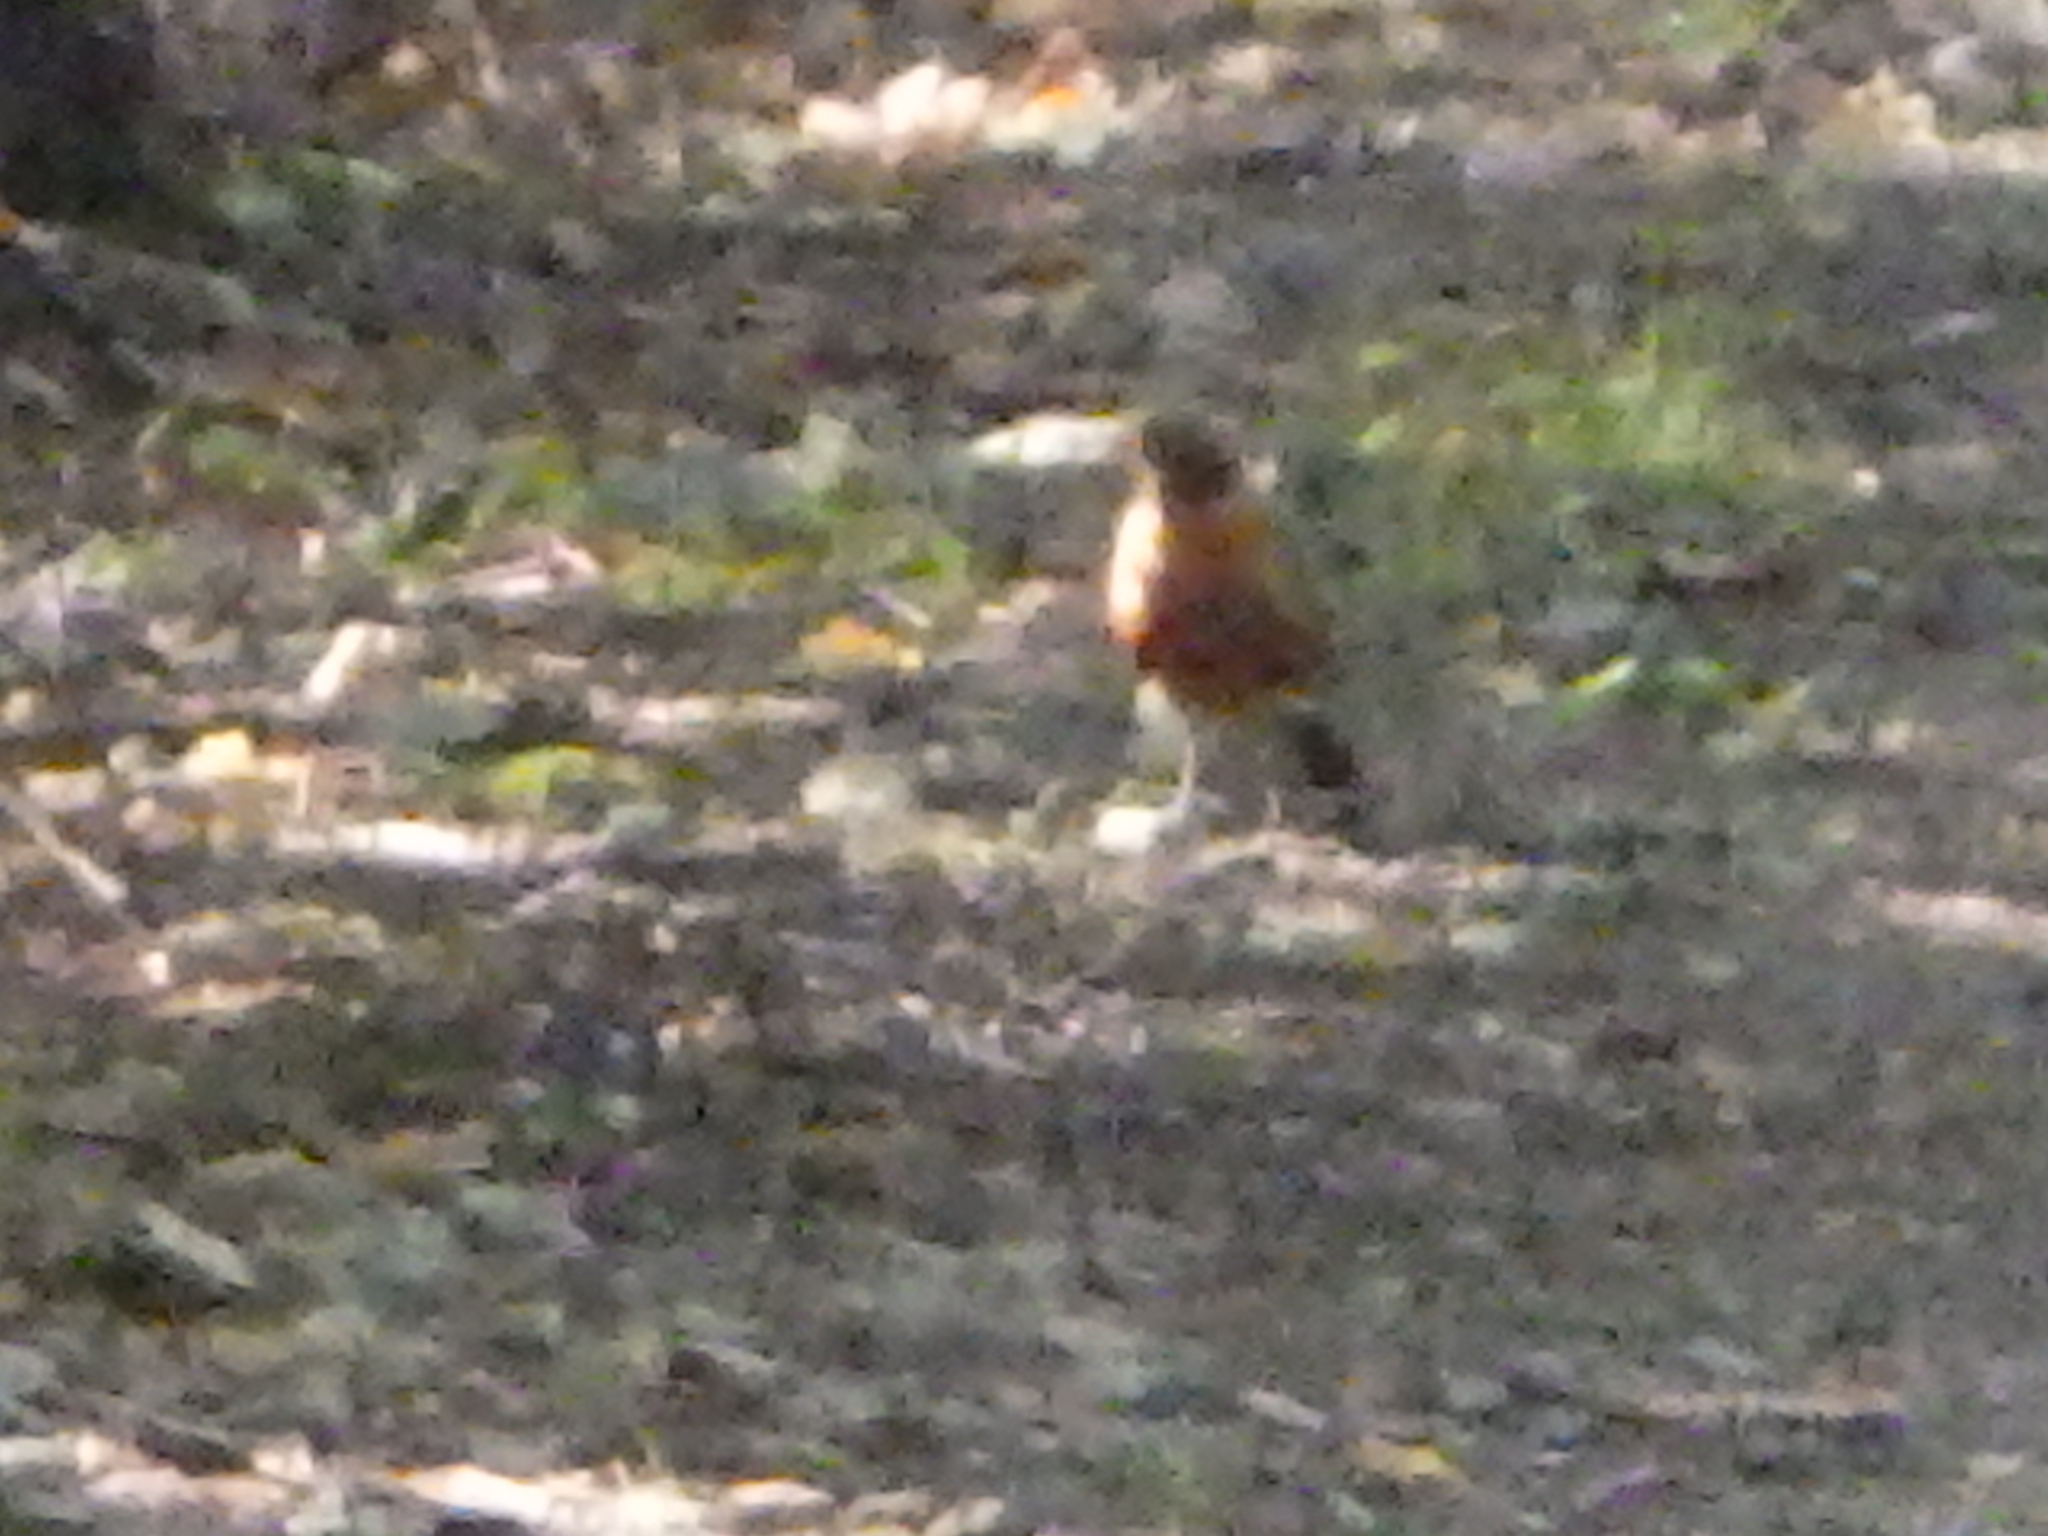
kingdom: Animalia
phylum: Chordata
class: Aves
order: Passeriformes
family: Turdidae
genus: Turdus
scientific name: Turdus migratorius
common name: American robin
